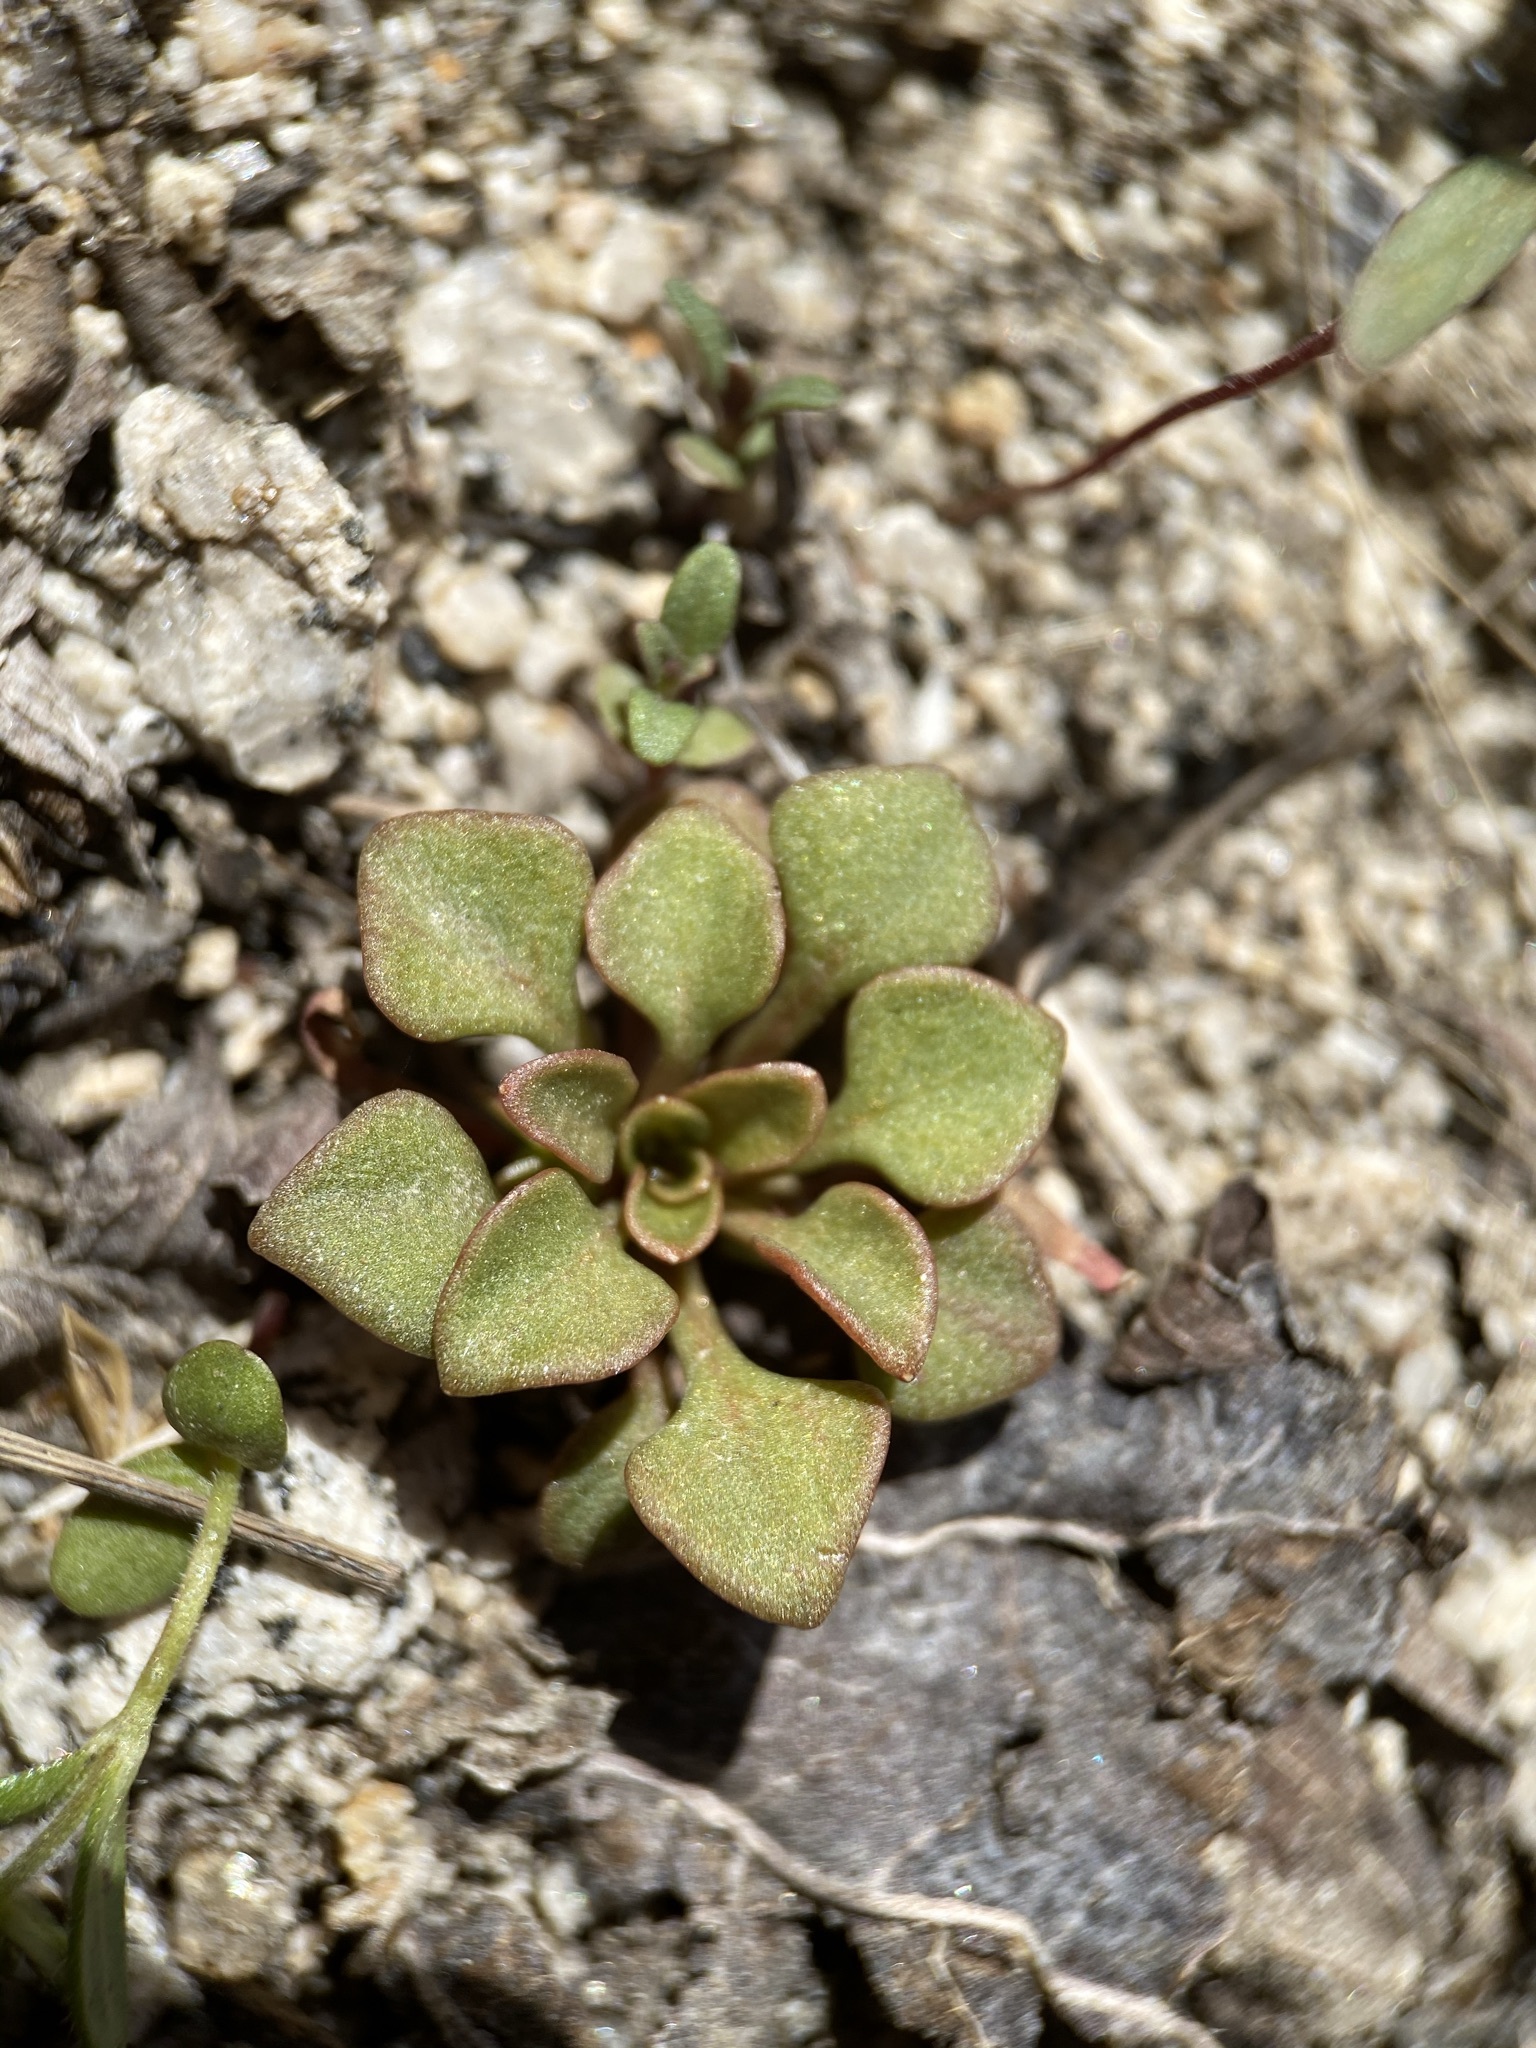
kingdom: Plantae
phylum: Tracheophyta
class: Magnoliopsida
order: Caryophyllales
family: Montiaceae
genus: Claytonia
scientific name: Claytonia rubra
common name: Erubescent miner's-lettuce
